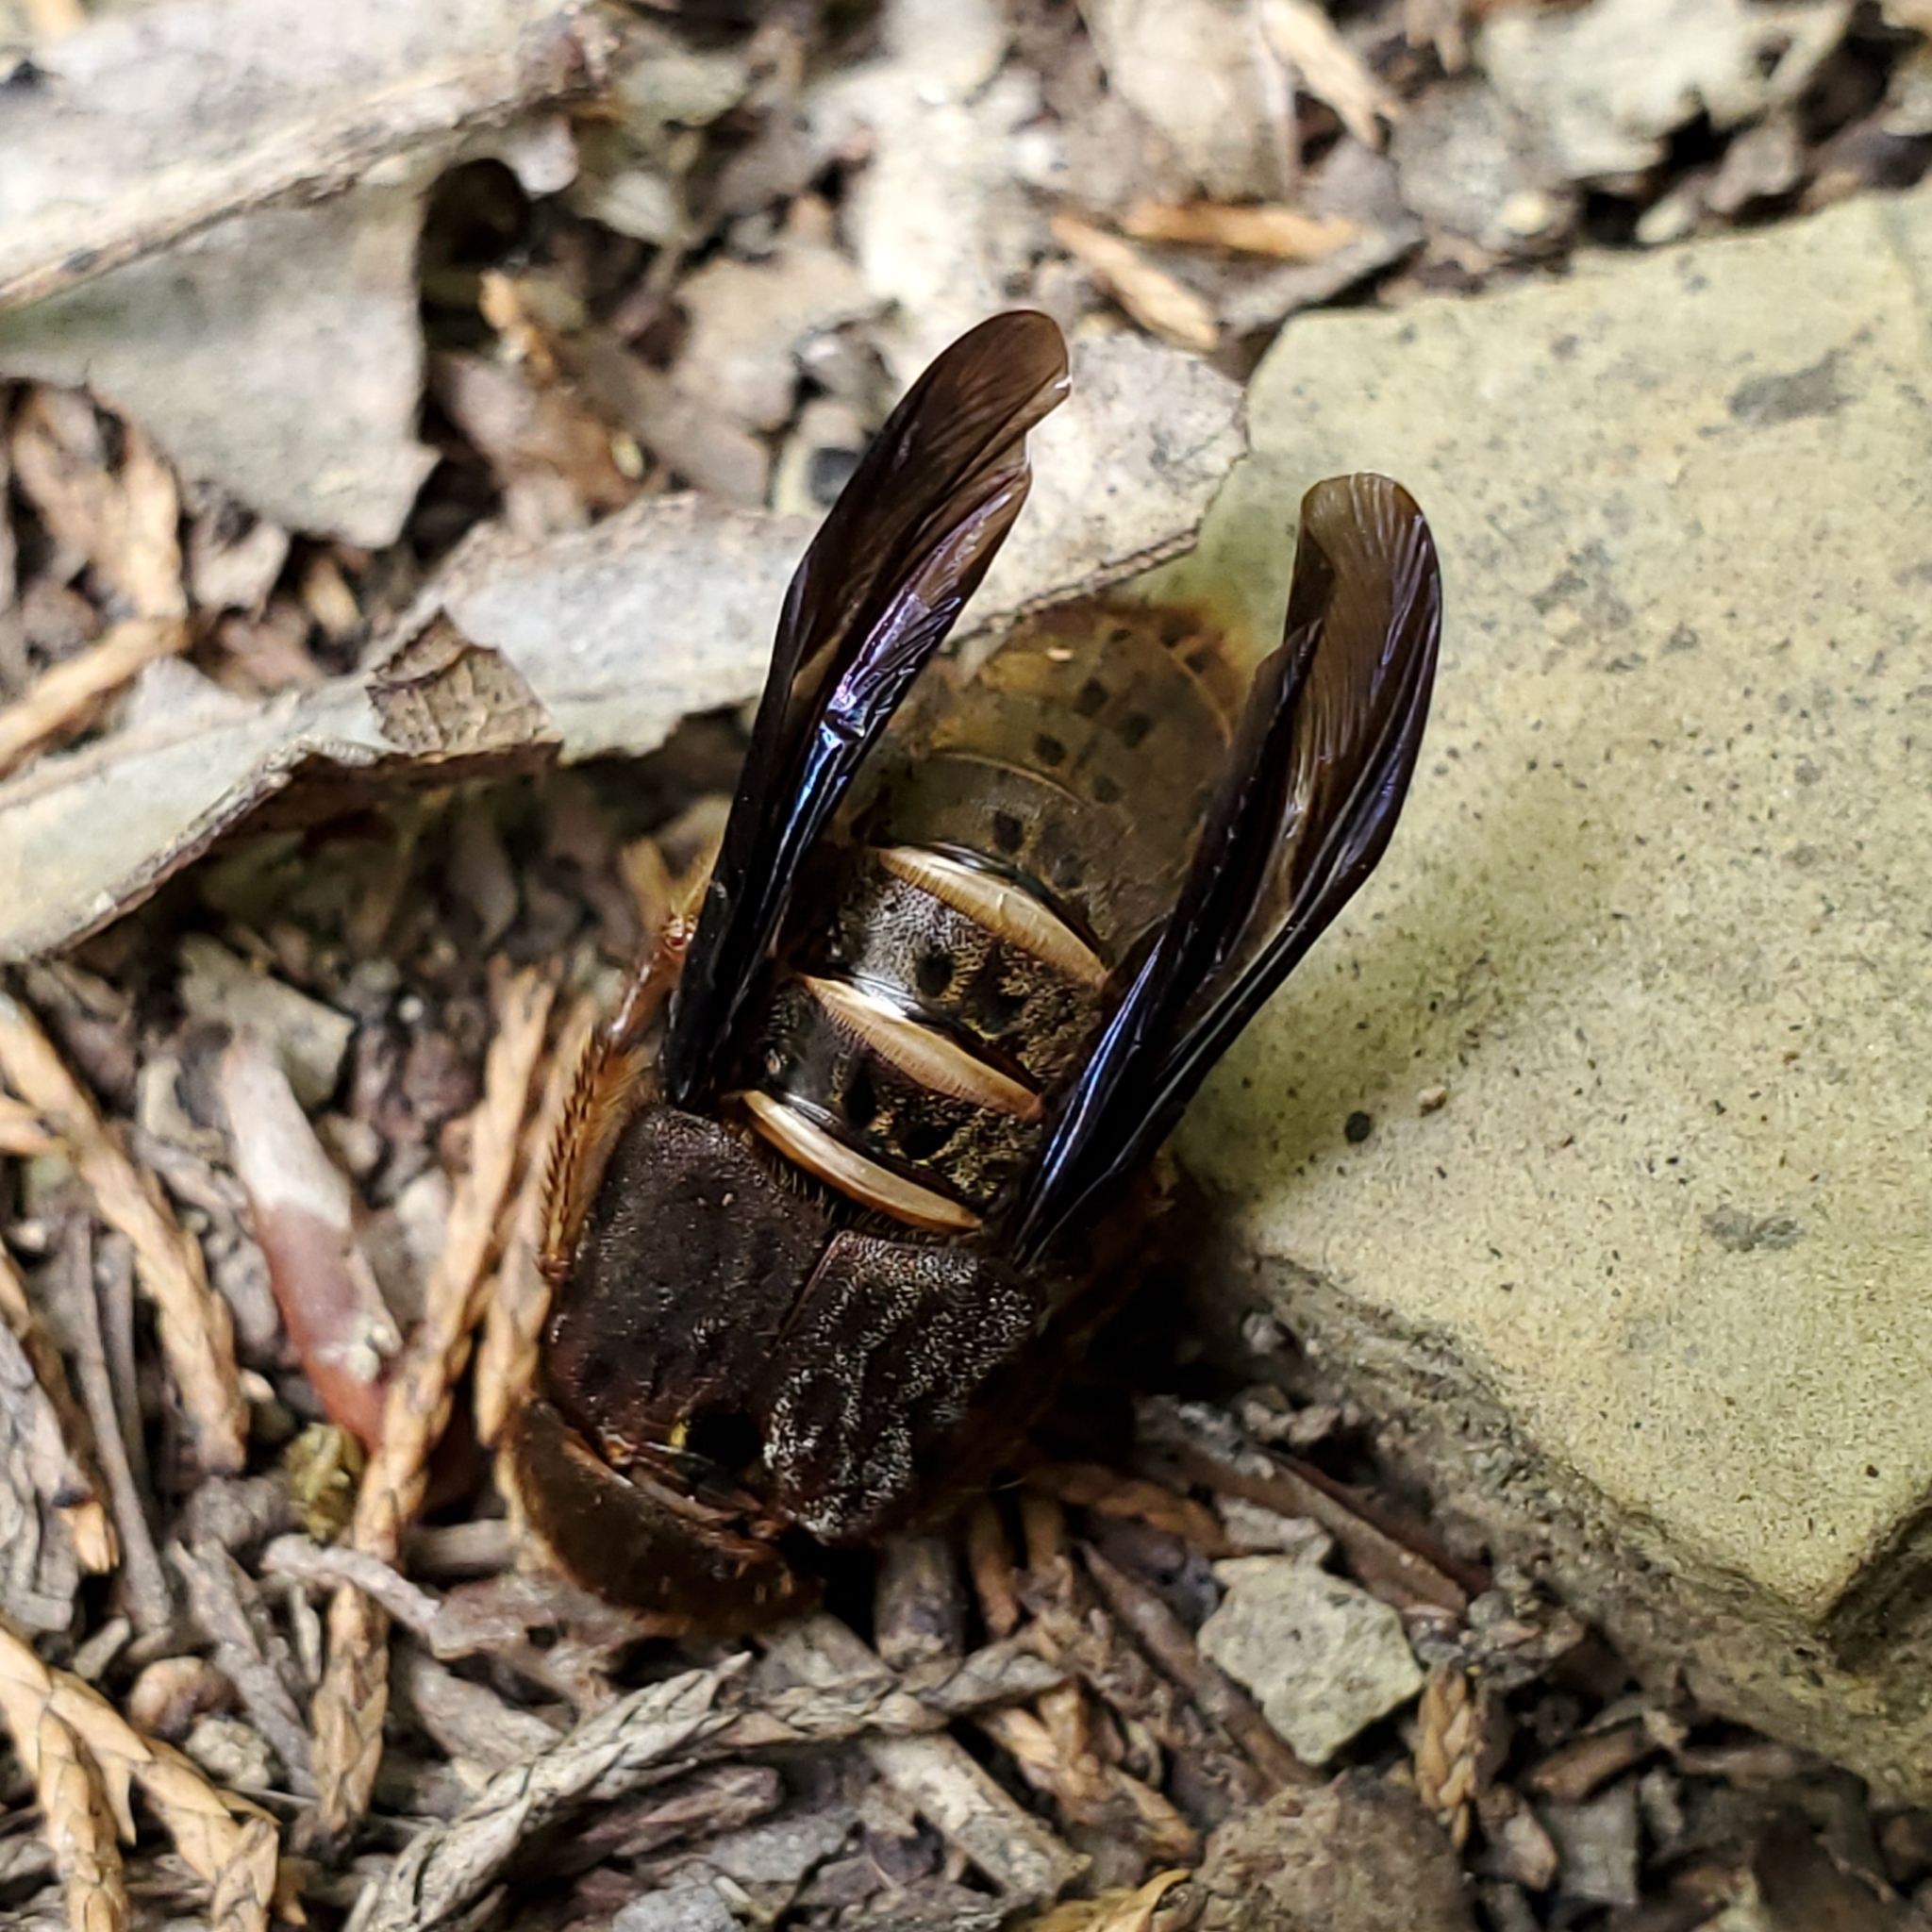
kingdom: Animalia
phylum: Arthropoda
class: Insecta
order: Coleoptera
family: Staphylinidae
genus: Platydracus
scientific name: Platydracus maculosus
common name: Brown rove beetle
